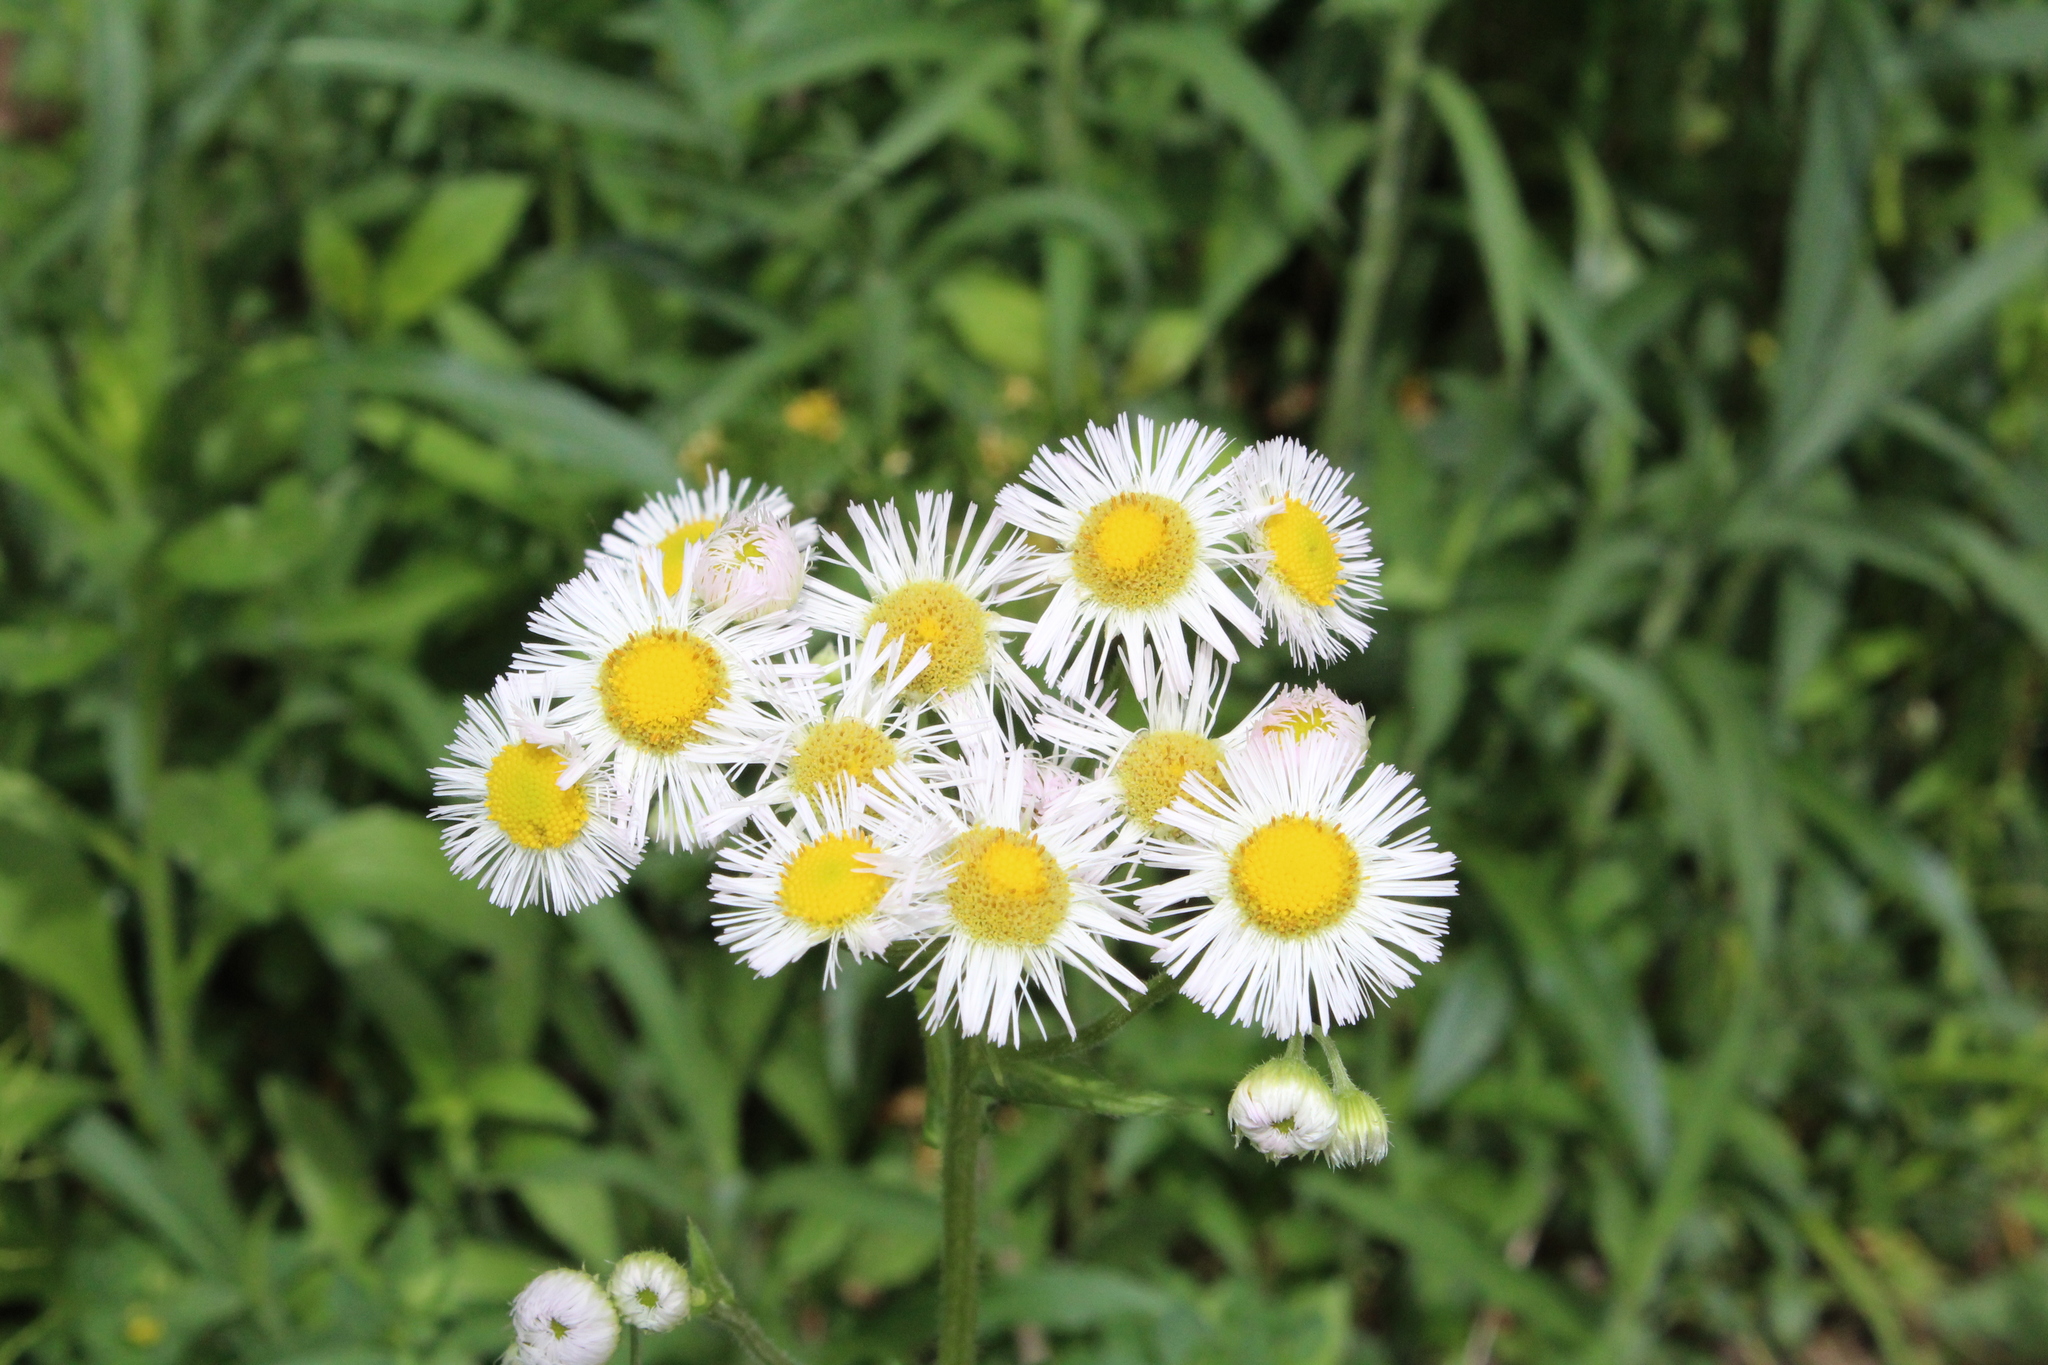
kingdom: Plantae
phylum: Tracheophyta
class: Magnoliopsida
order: Asterales
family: Asteraceae
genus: Erigeron
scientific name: Erigeron philadelphicus
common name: Robin's-plantain
